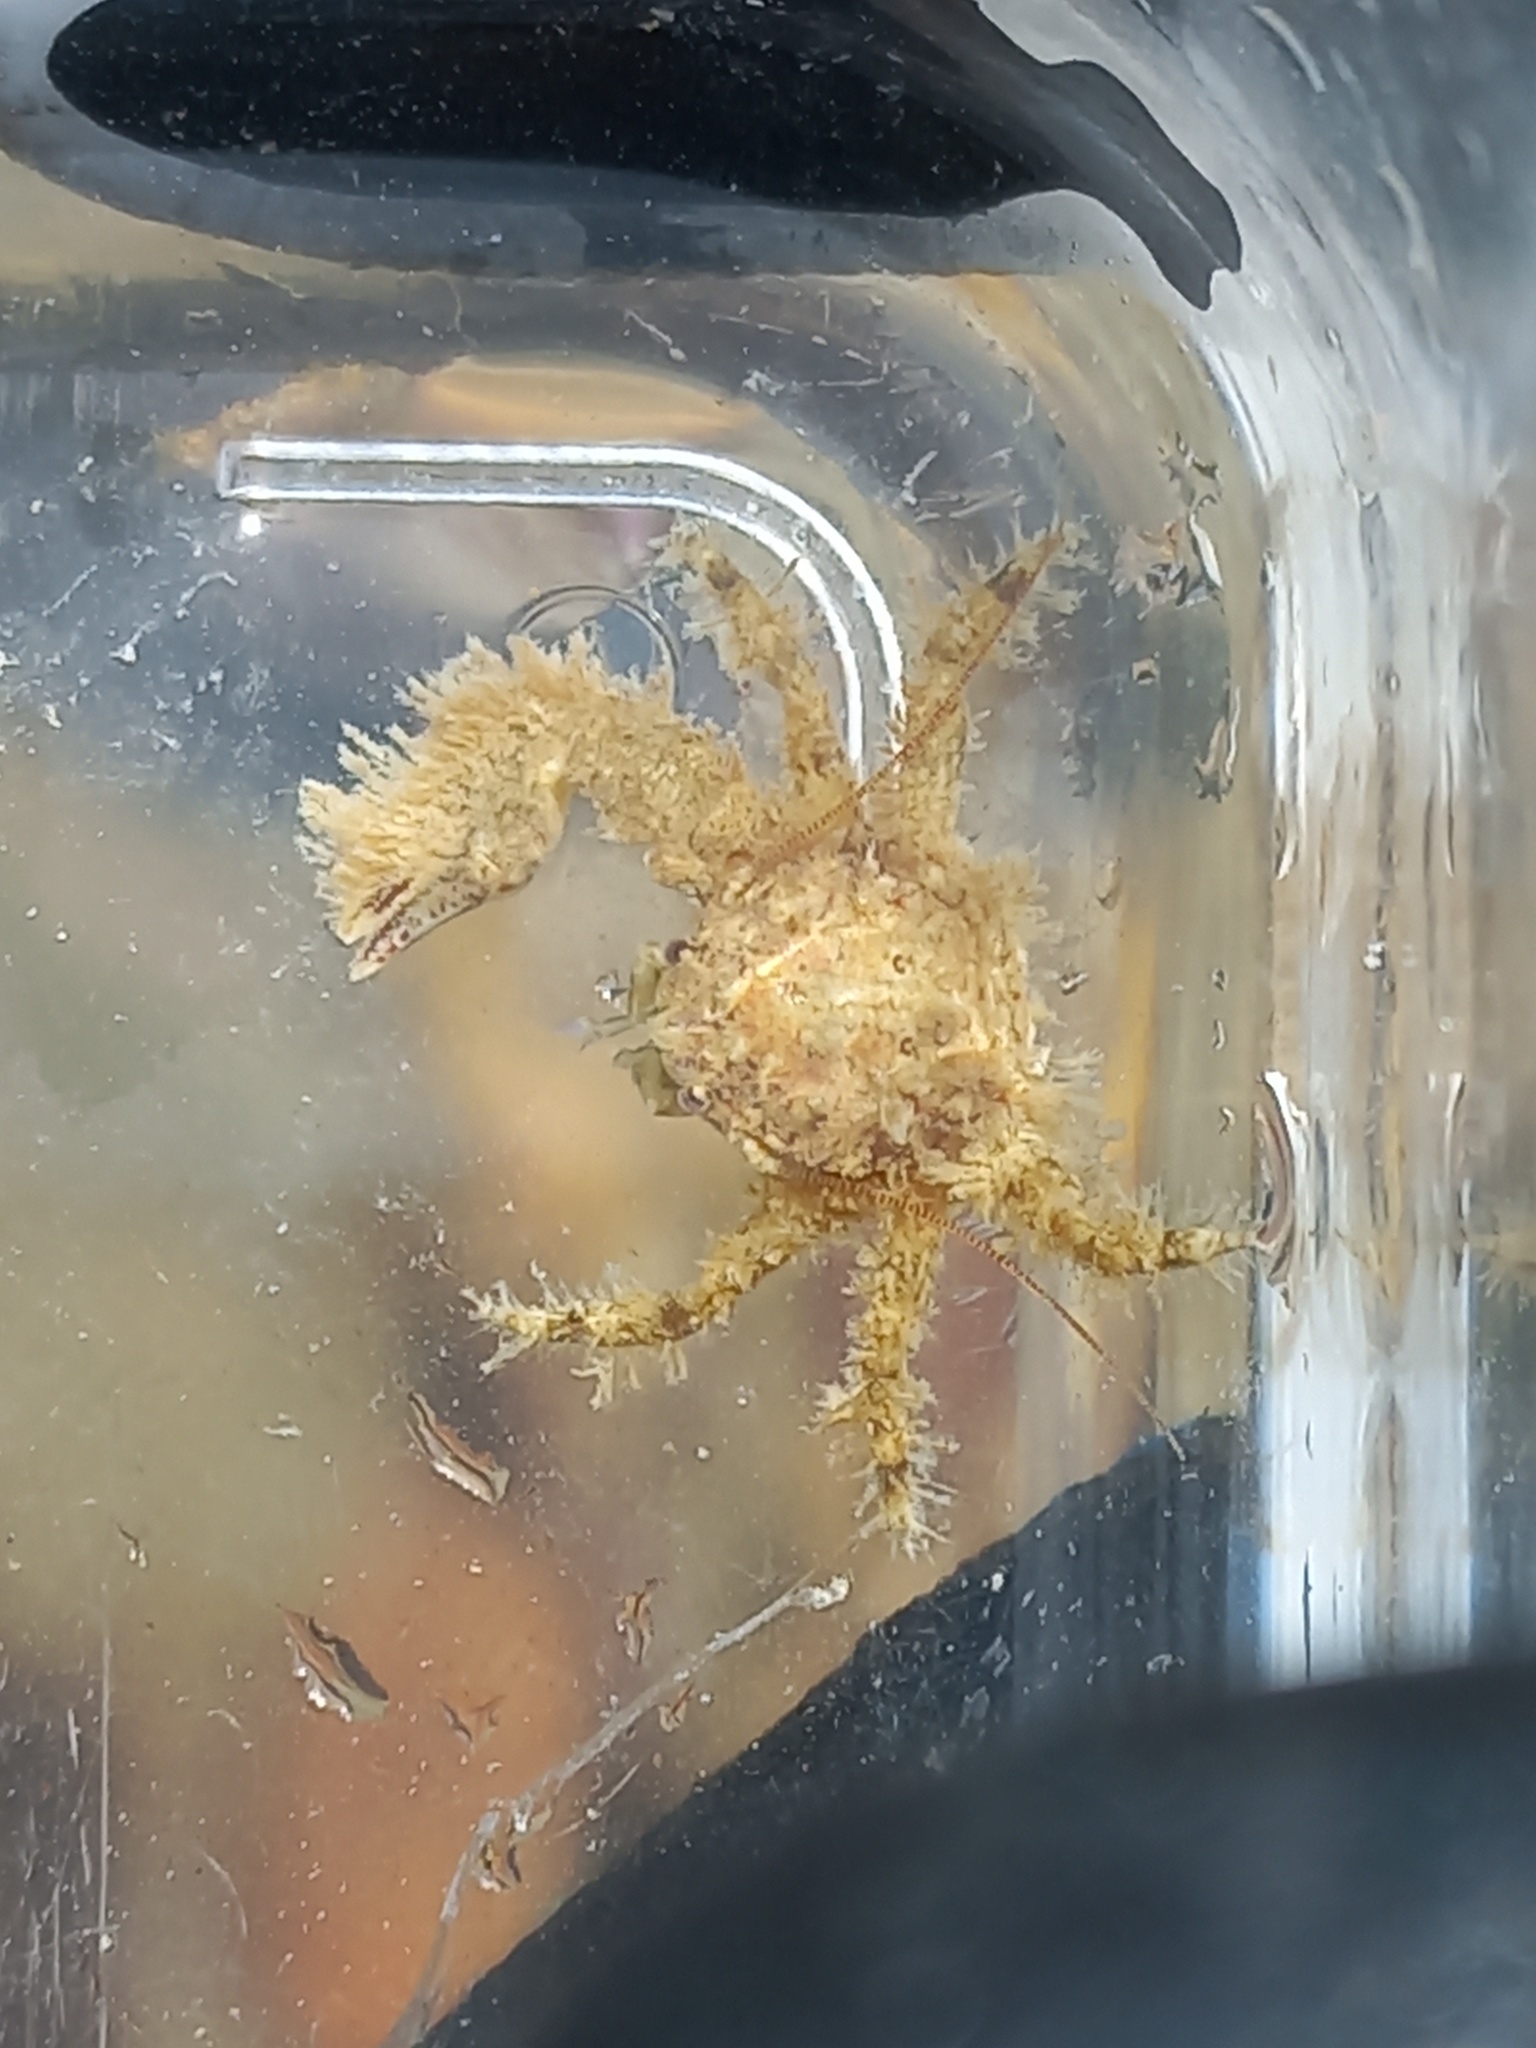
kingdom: Animalia
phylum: Arthropoda
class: Malacostraca
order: Decapoda
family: Porcellanidae
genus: Porcellana
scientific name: Porcellana platycheles
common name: Porcelain crab
